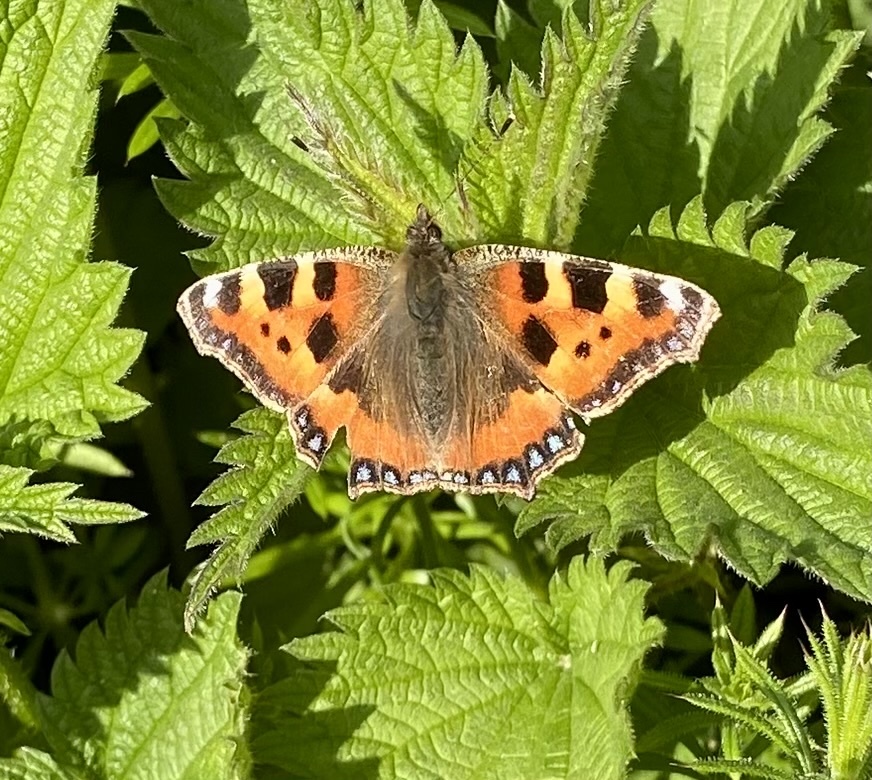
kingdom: Animalia
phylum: Arthropoda
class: Insecta
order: Lepidoptera
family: Nymphalidae
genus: Aglais
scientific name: Aglais urticae
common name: Small tortoiseshell
